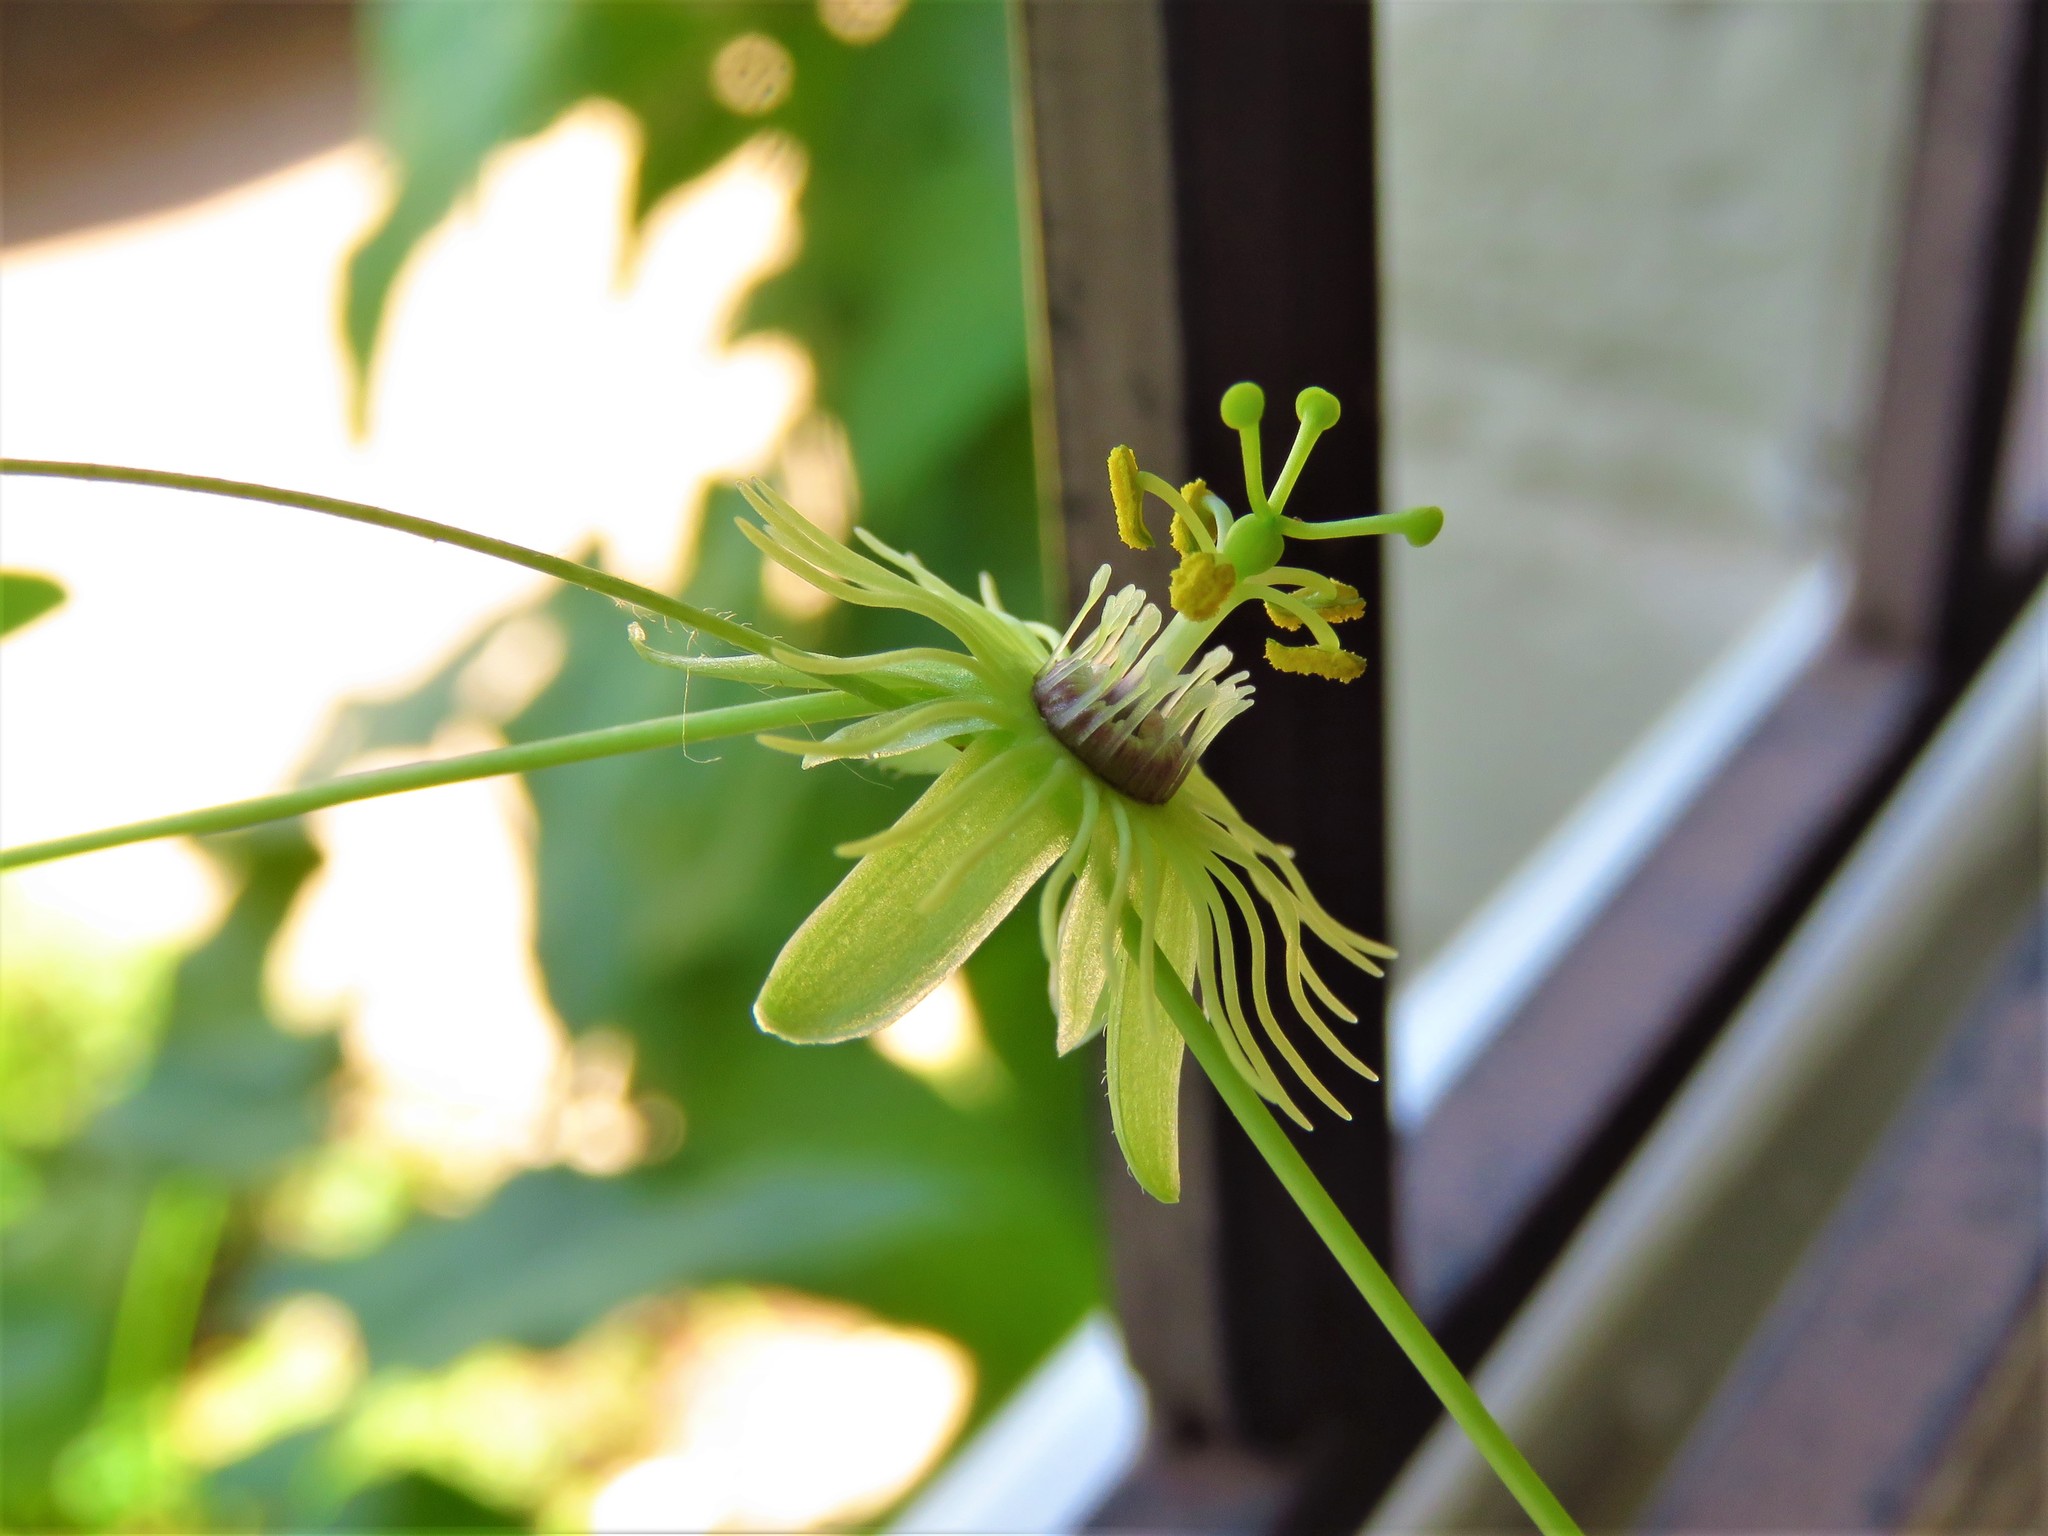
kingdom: Plantae
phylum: Tracheophyta
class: Magnoliopsida
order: Malpighiales
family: Passifloraceae
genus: Passiflora
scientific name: Passiflora lutea
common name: Yellow passionflower
